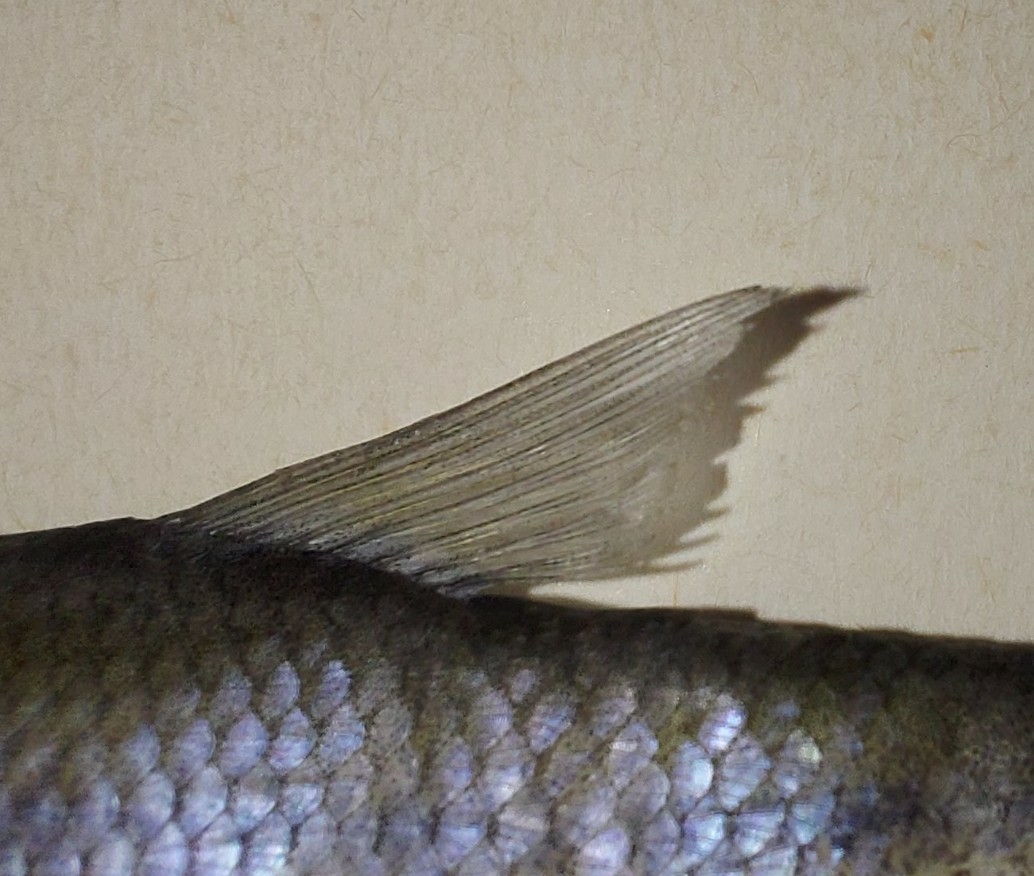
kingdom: Animalia
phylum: Chordata
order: Cypriniformes
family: Cyprinidae
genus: Notemigonus
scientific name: Notemigonus crysoleucas
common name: Golden shiner
